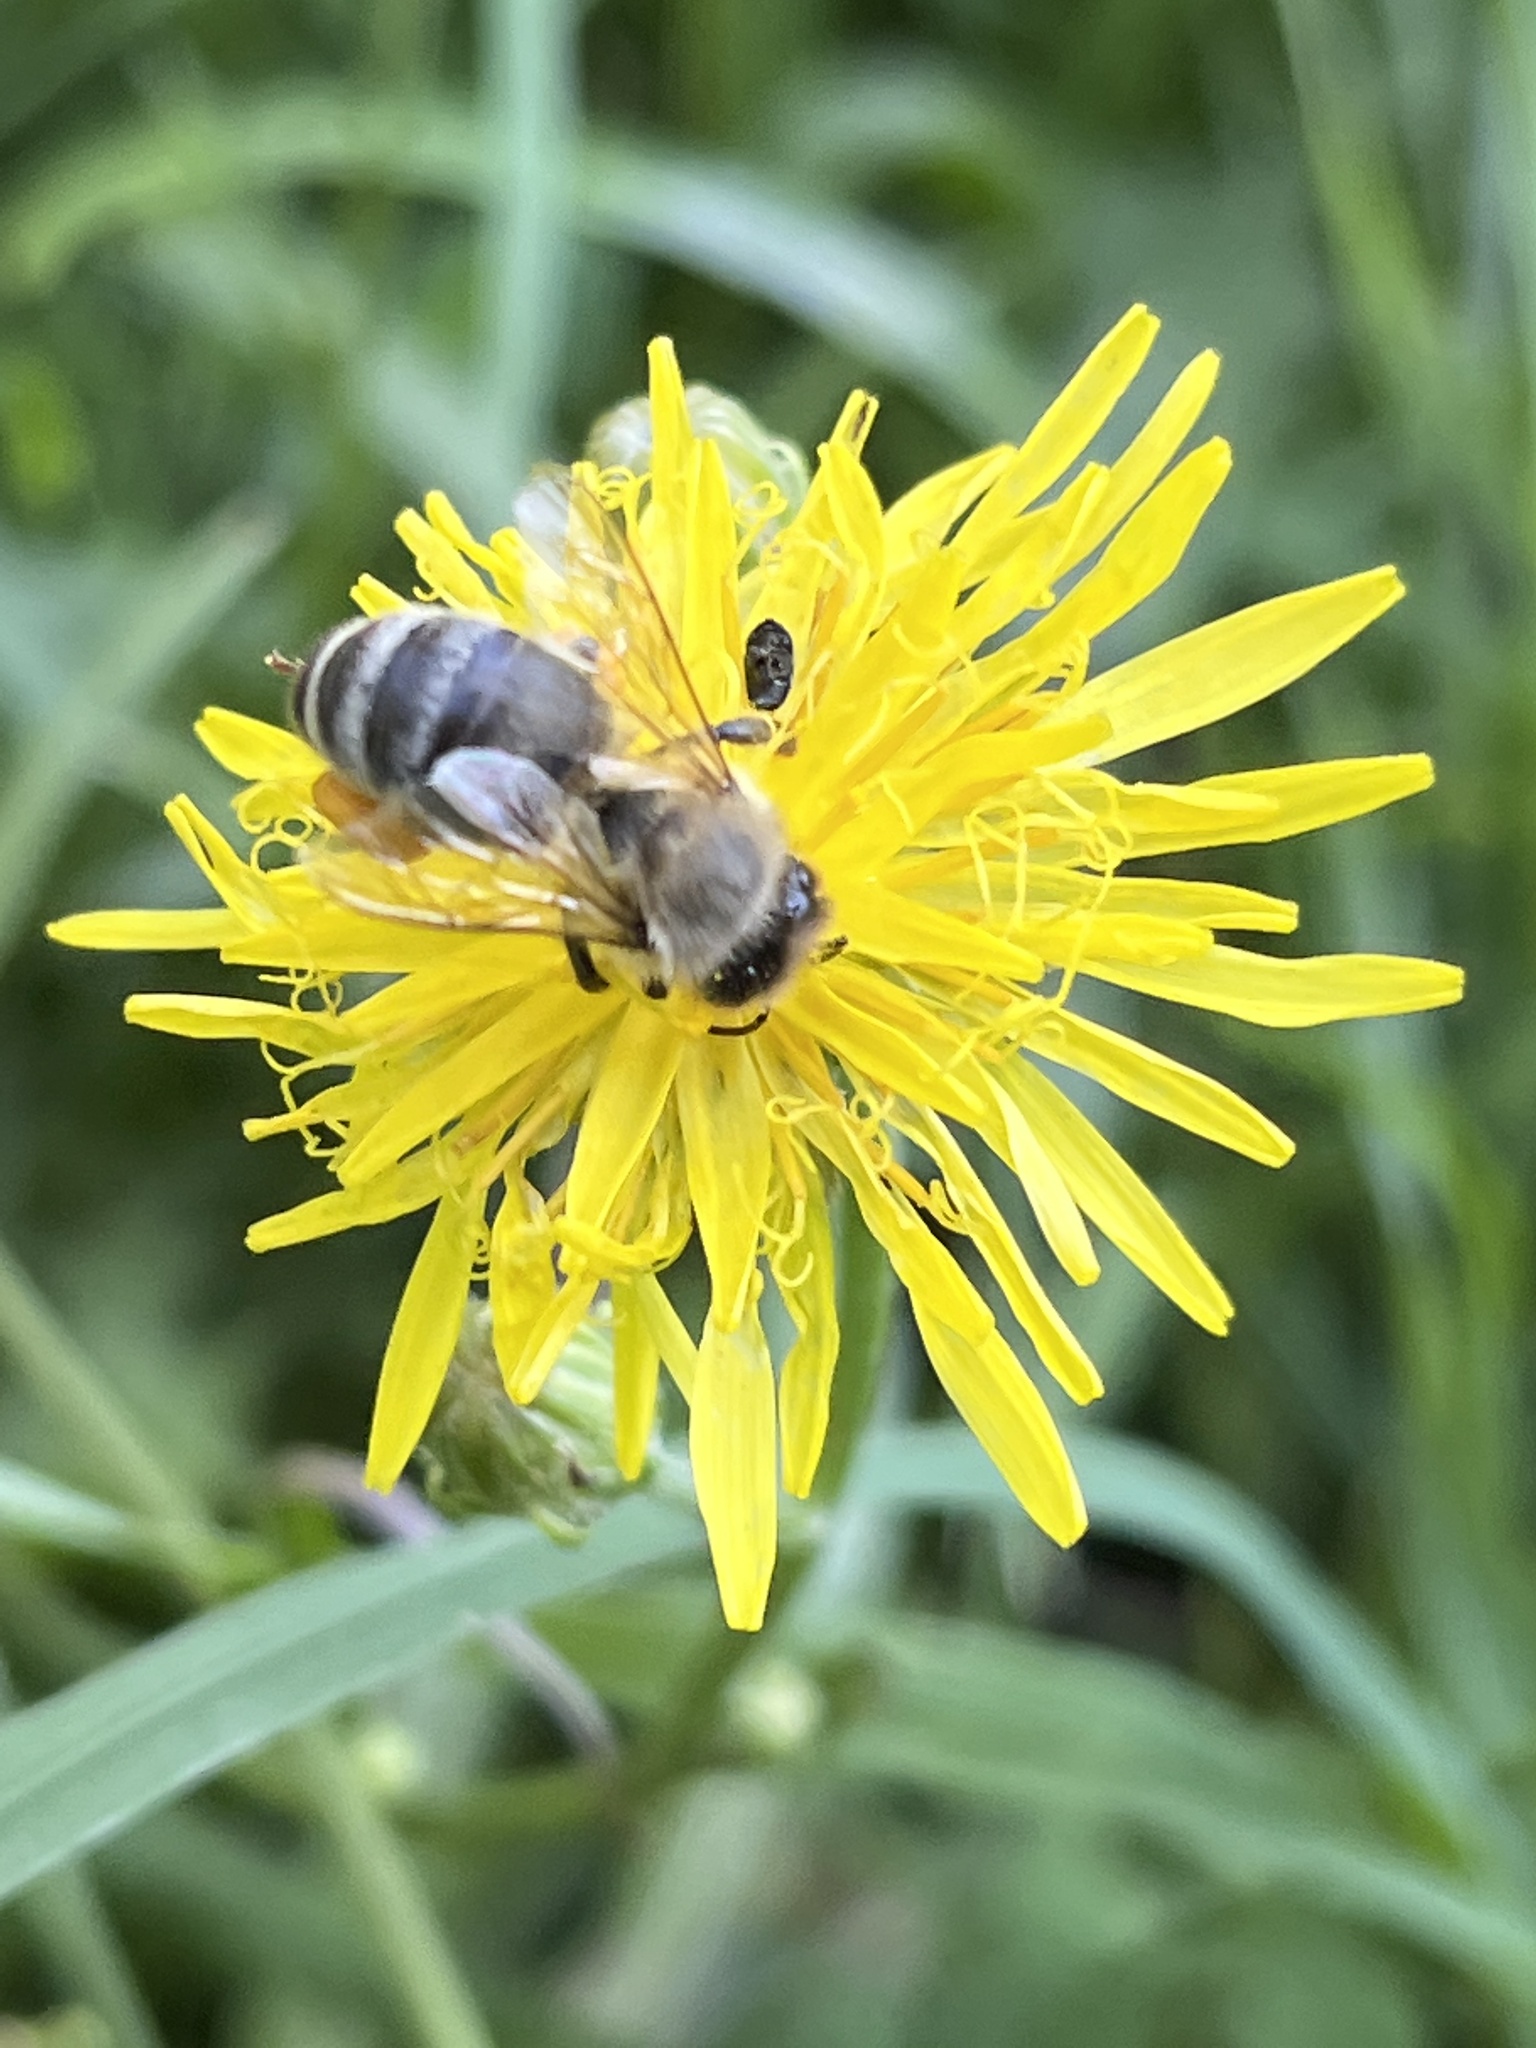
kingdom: Animalia
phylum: Arthropoda
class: Insecta
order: Hymenoptera
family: Apidae
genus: Apis
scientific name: Apis mellifera
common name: Honey bee
